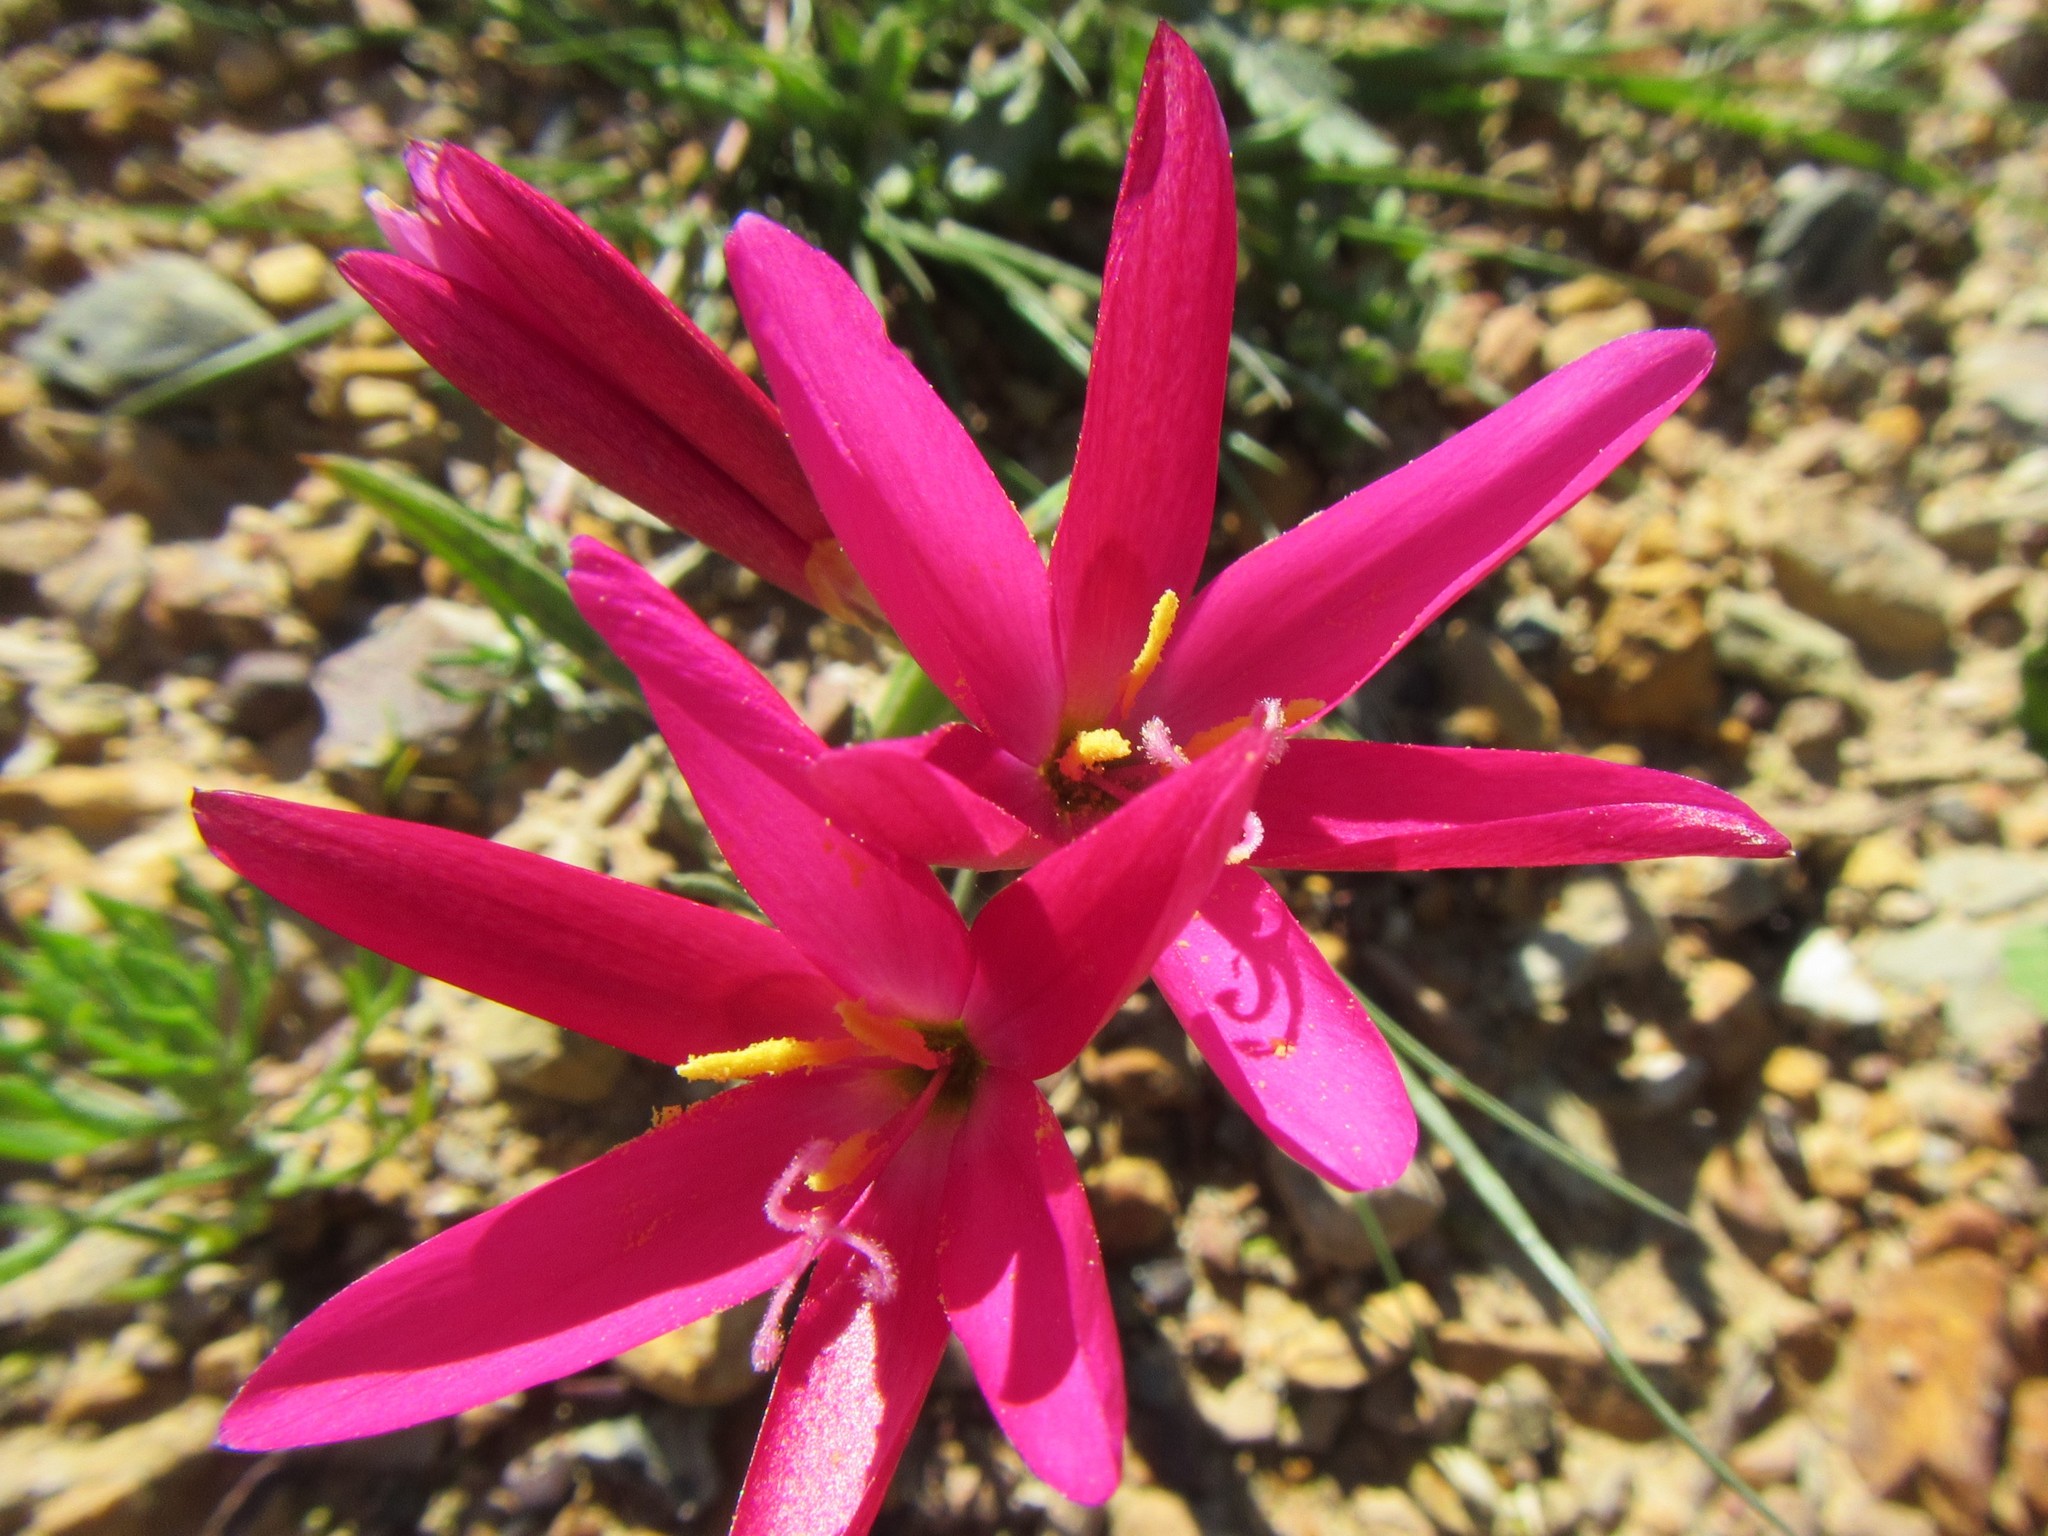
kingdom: Plantae
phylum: Tracheophyta
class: Liliopsida
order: Asparagales
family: Iridaceae
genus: Geissorhiza
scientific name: Geissorhiza erosa
